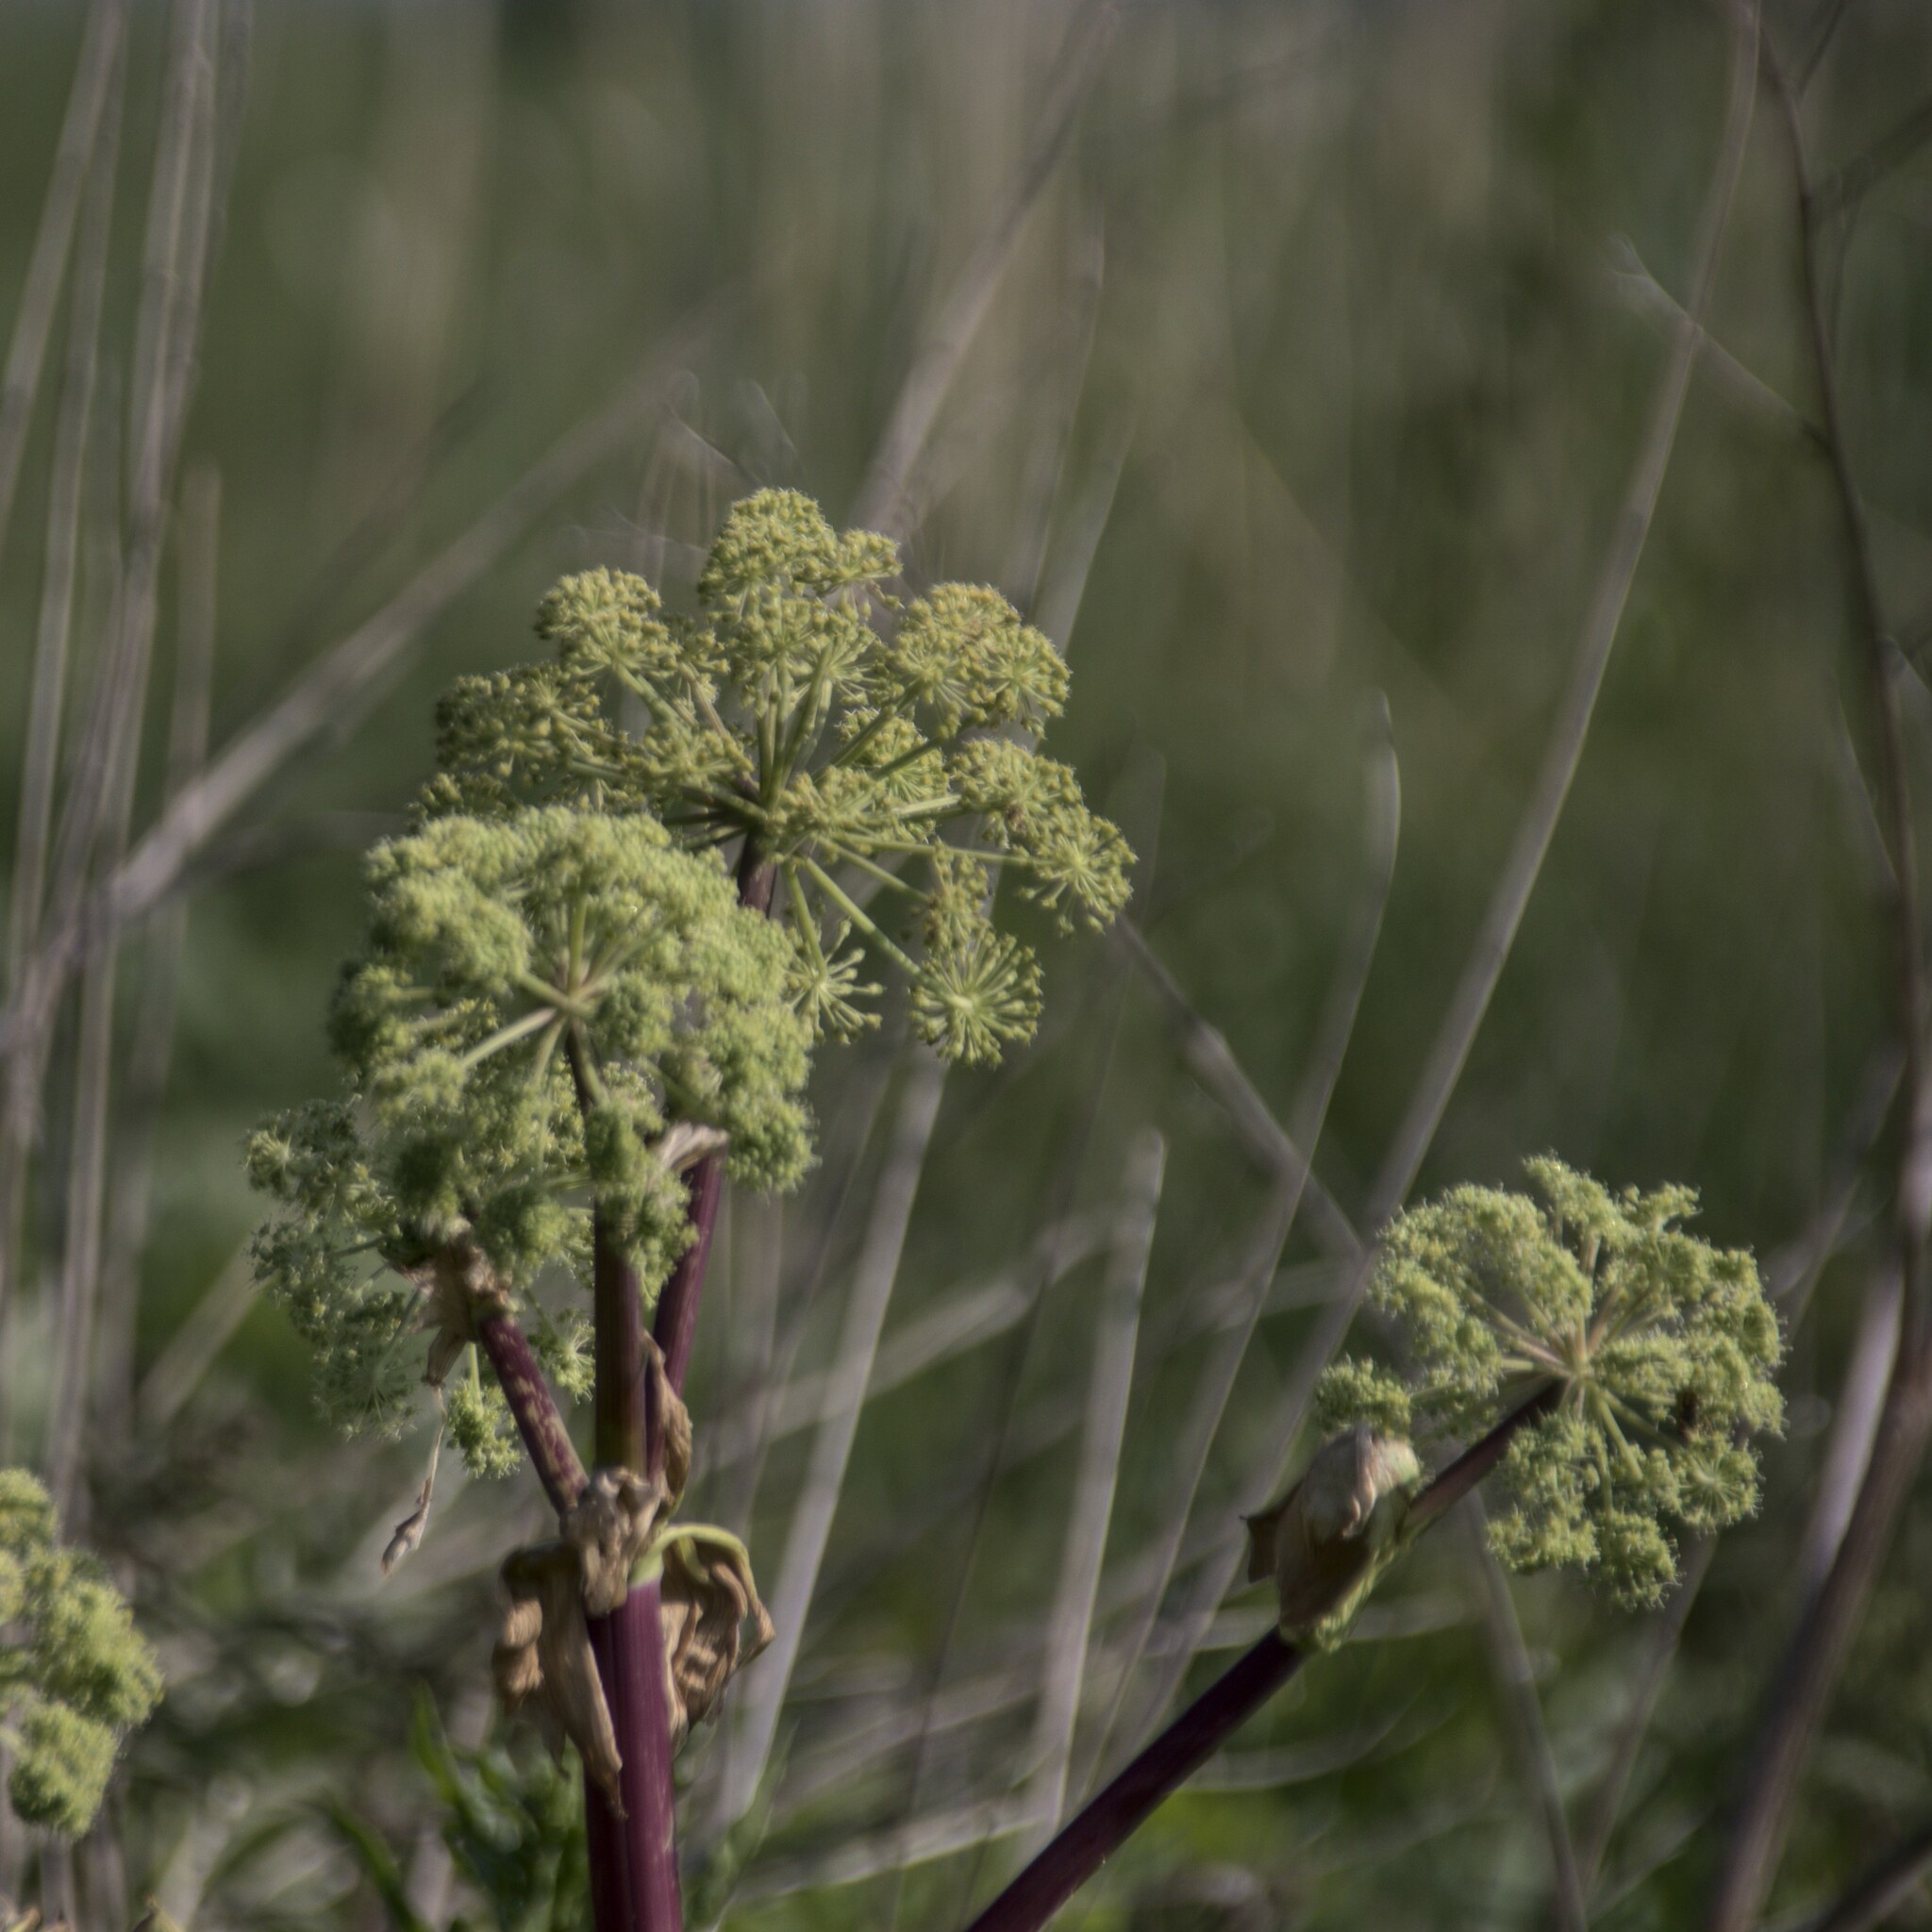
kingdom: Plantae
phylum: Tracheophyta
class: Magnoliopsida
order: Apiales
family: Apiaceae
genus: Angelica
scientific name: Angelica archangelica
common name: Garden angelica
